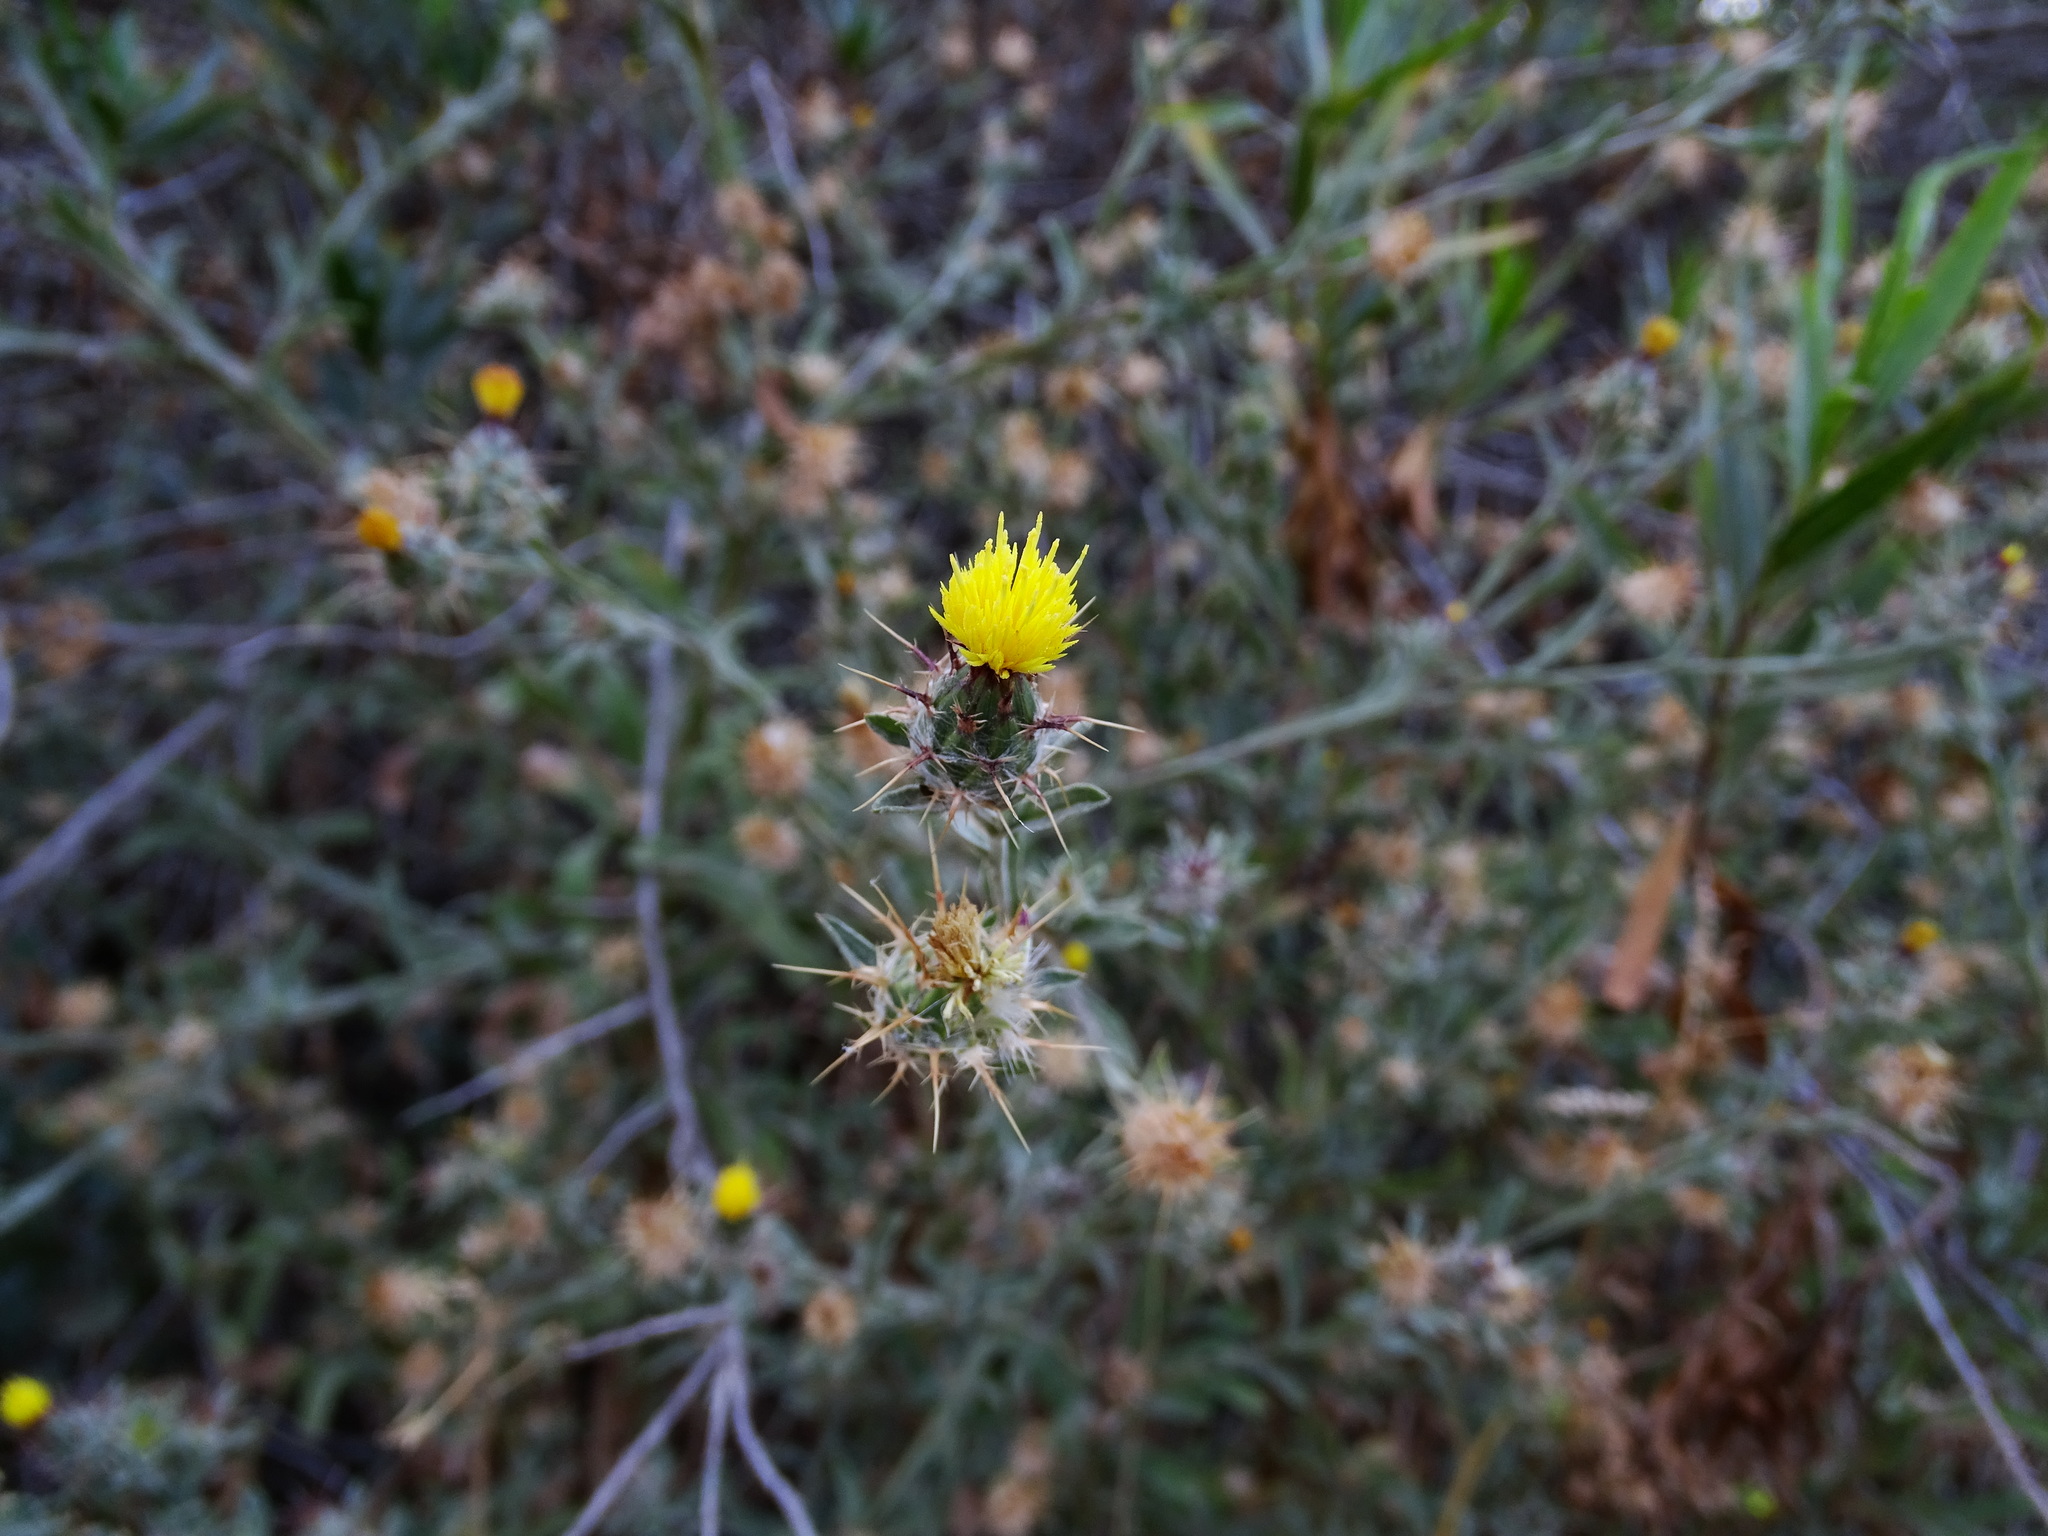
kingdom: Plantae
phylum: Tracheophyta
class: Magnoliopsida
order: Asterales
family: Asteraceae
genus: Centaurea
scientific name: Centaurea melitensis
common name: Maltese star-thistle
